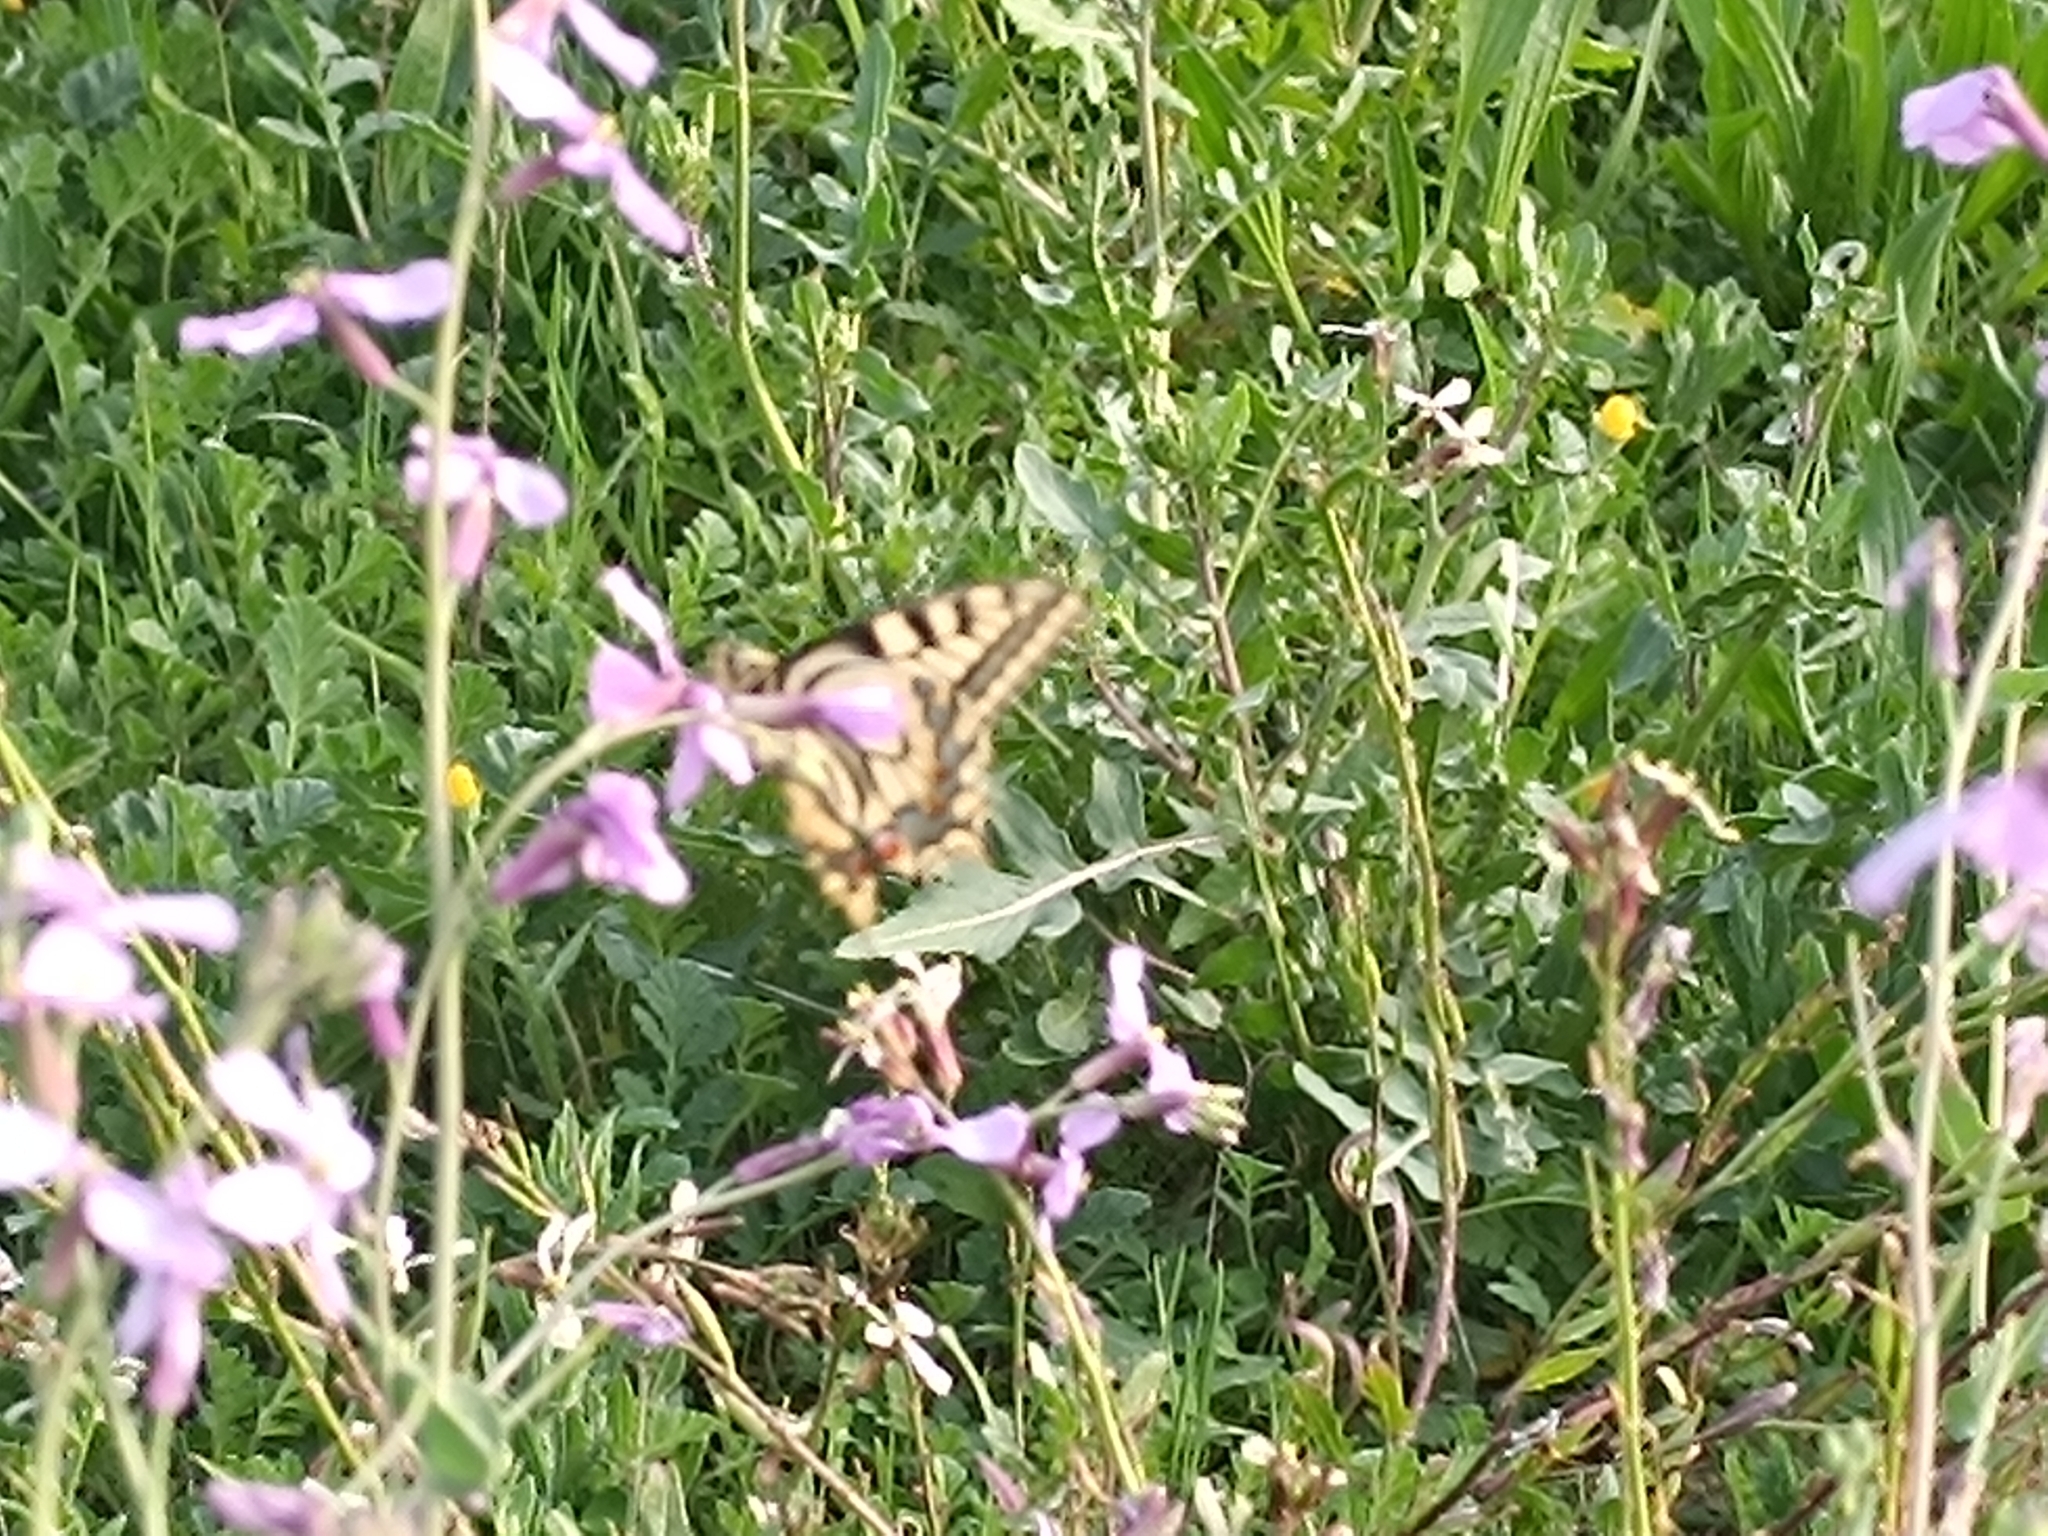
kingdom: Animalia
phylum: Arthropoda
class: Insecta
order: Lepidoptera
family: Papilionidae
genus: Papilio
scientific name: Papilio machaon
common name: Swallowtail
